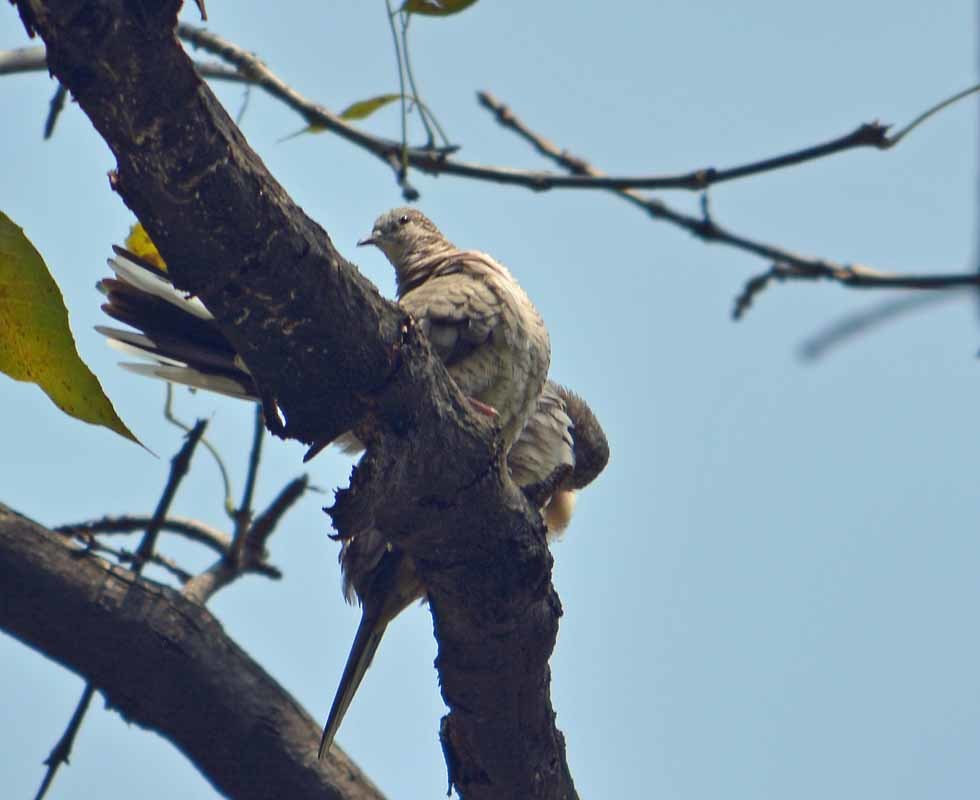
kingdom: Animalia
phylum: Chordata
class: Aves
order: Columbiformes
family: Columbidae
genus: Columbina
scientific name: Columbina inca
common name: Inca dove
